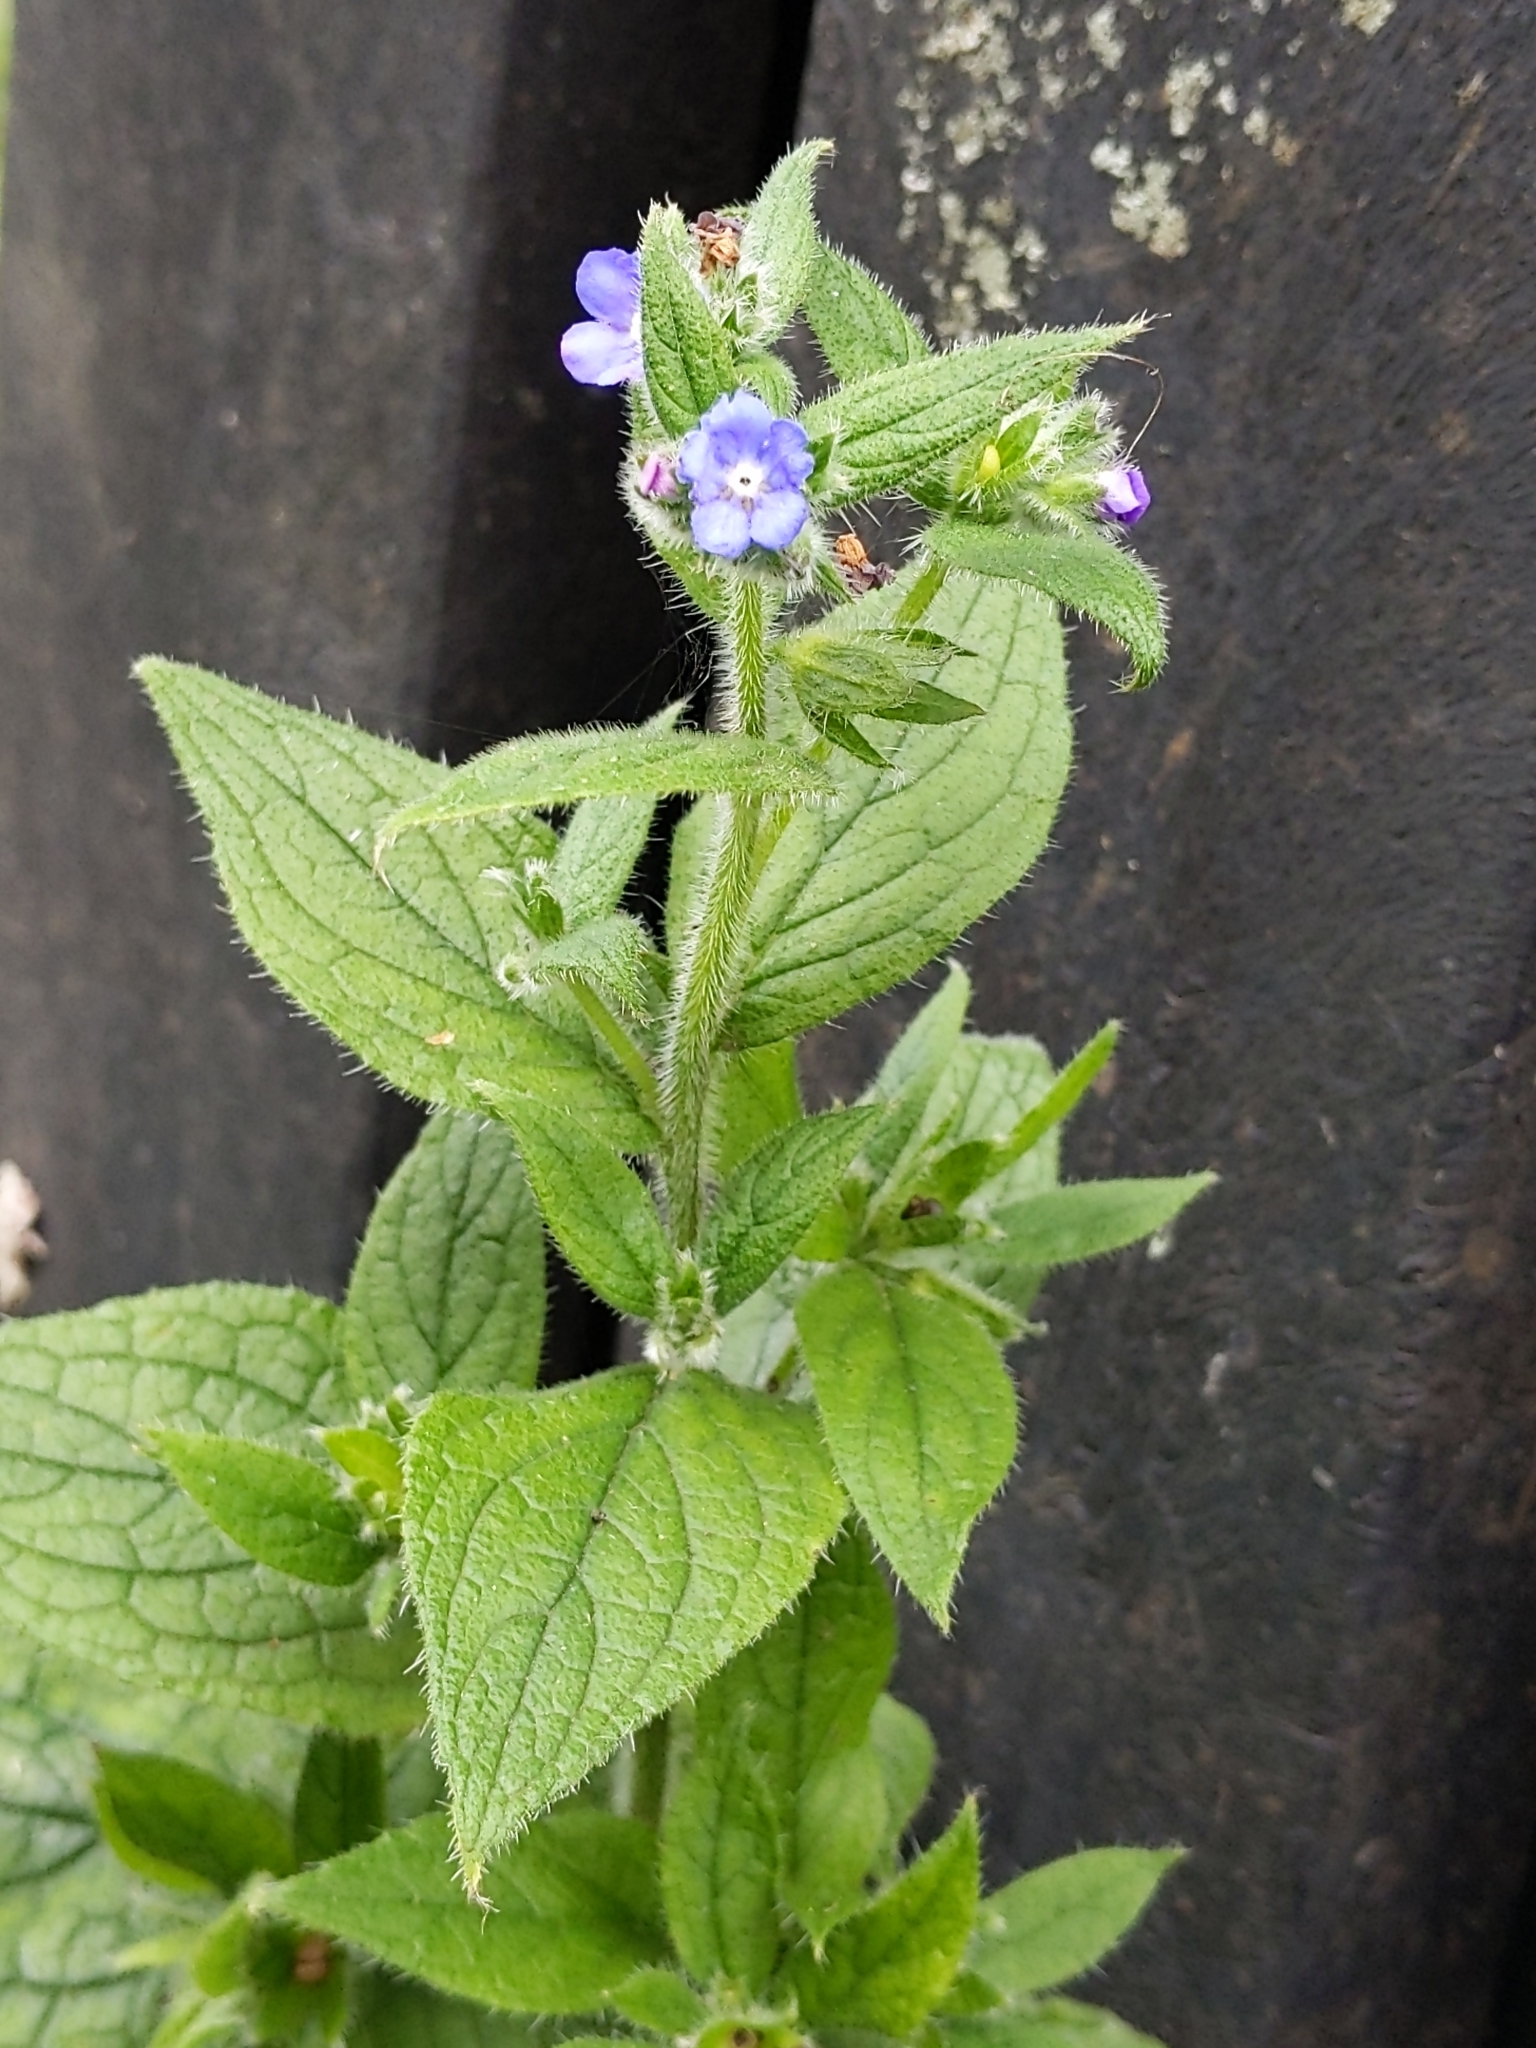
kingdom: Plantae
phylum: Tracheophyta
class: Magnoliopsida
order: Boraginales
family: Boraginaceae
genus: Pentaglottis
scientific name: Pentaglottis sempervirens
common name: Green alkanet
